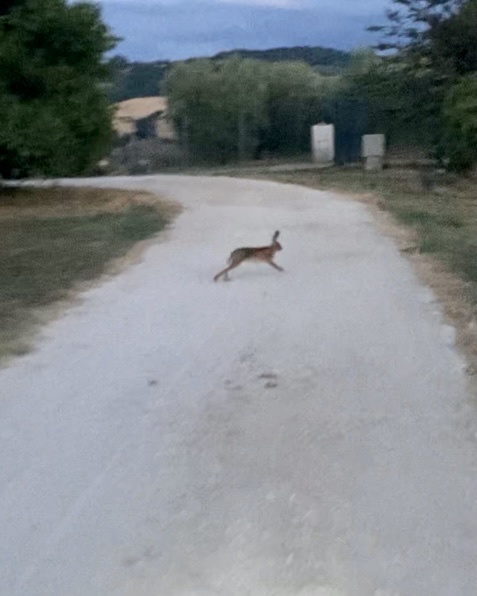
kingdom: Animalia
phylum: Chordata
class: Mammalia
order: Lagomorpha
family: Leporidae
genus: Lepus
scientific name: Lepus europaeus
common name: European hare
